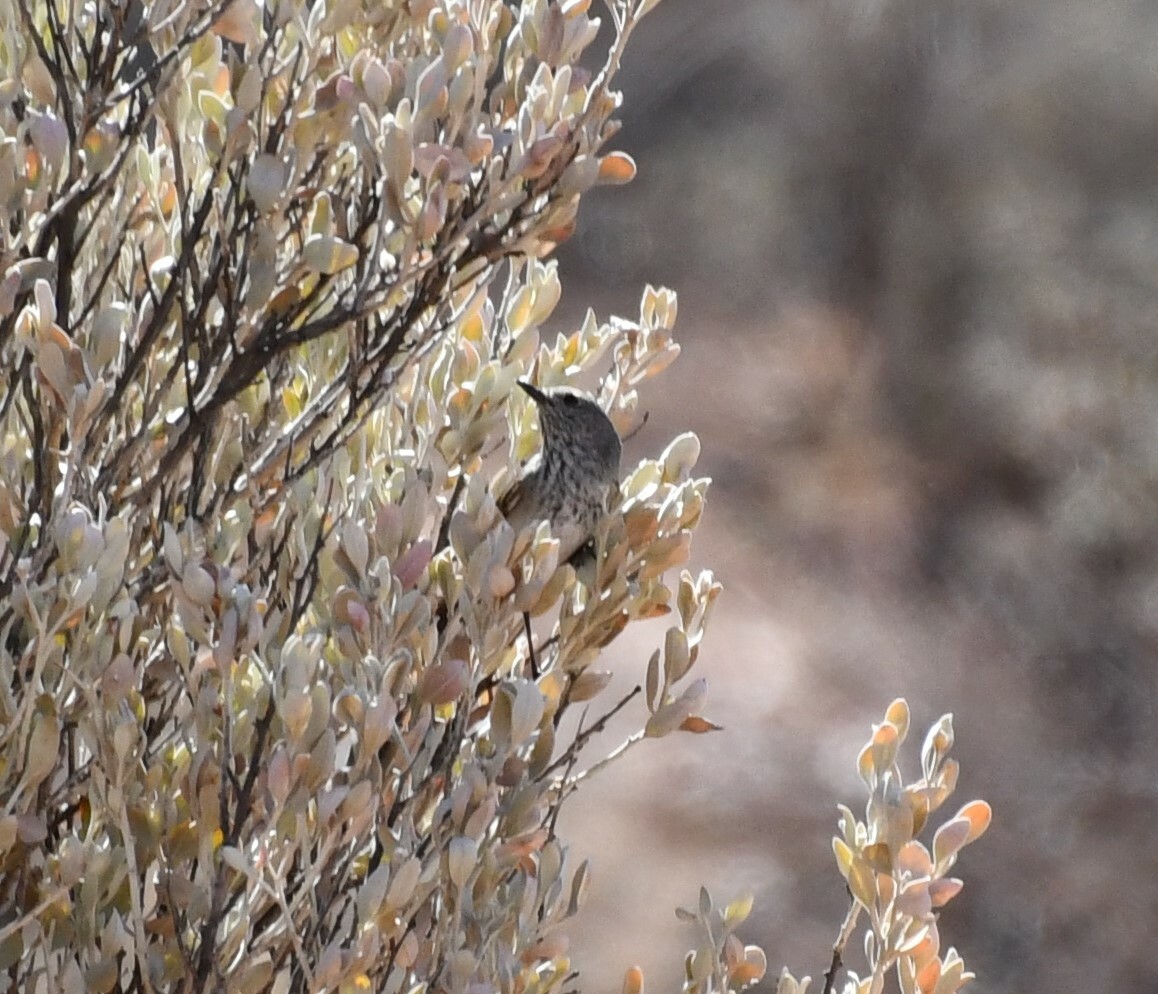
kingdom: Animalia
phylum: Chordata
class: Aves
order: Passeriformes
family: Acanthizidae
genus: Acanthiza
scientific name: Acanthiza apicalis
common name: Inland thornbill
